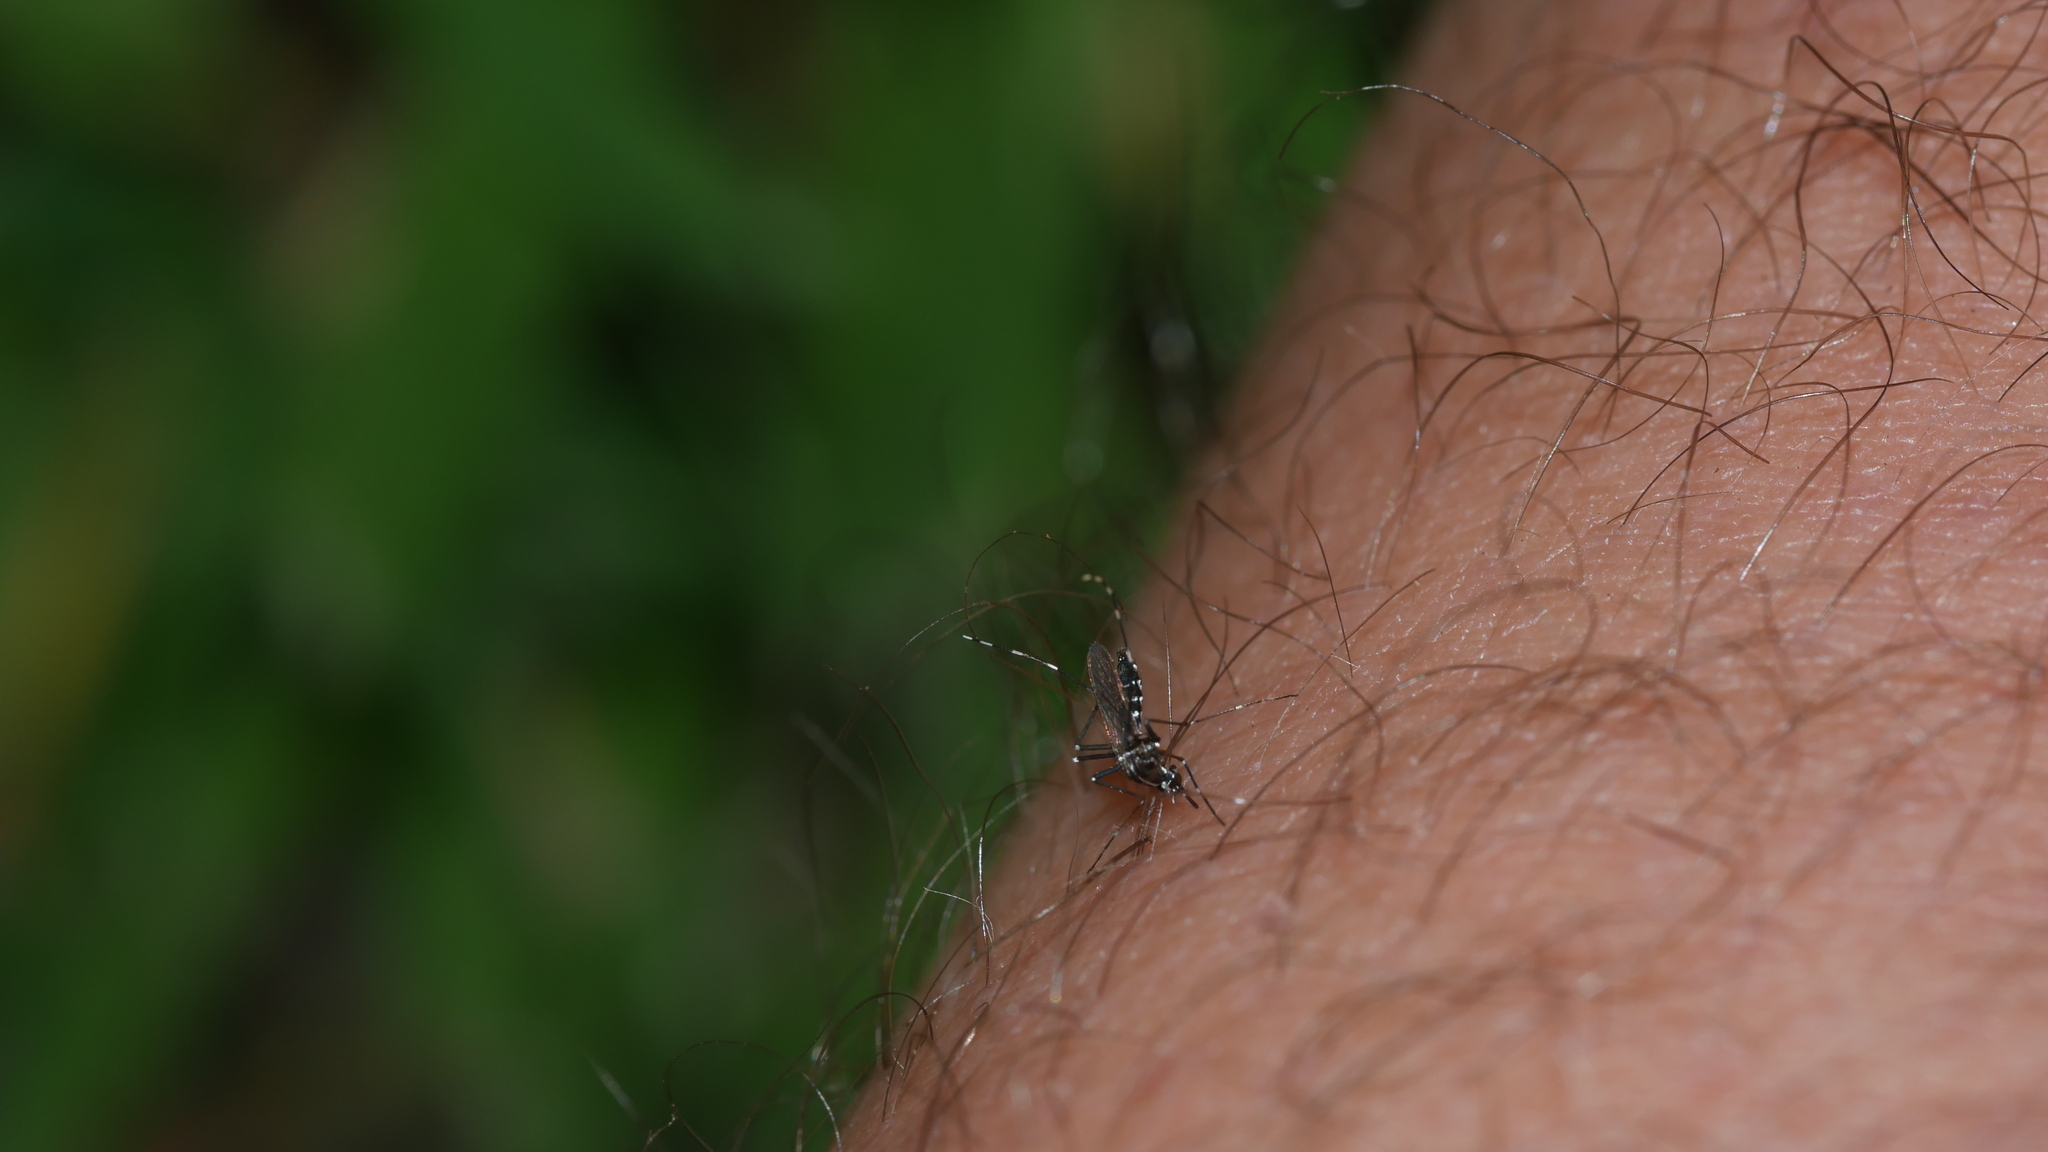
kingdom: Animalia
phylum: Arthropoda
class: Insecta
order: Diptera
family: Culicidae
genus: Aedes
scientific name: Aedes albopictus
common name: Tiger mosquito
